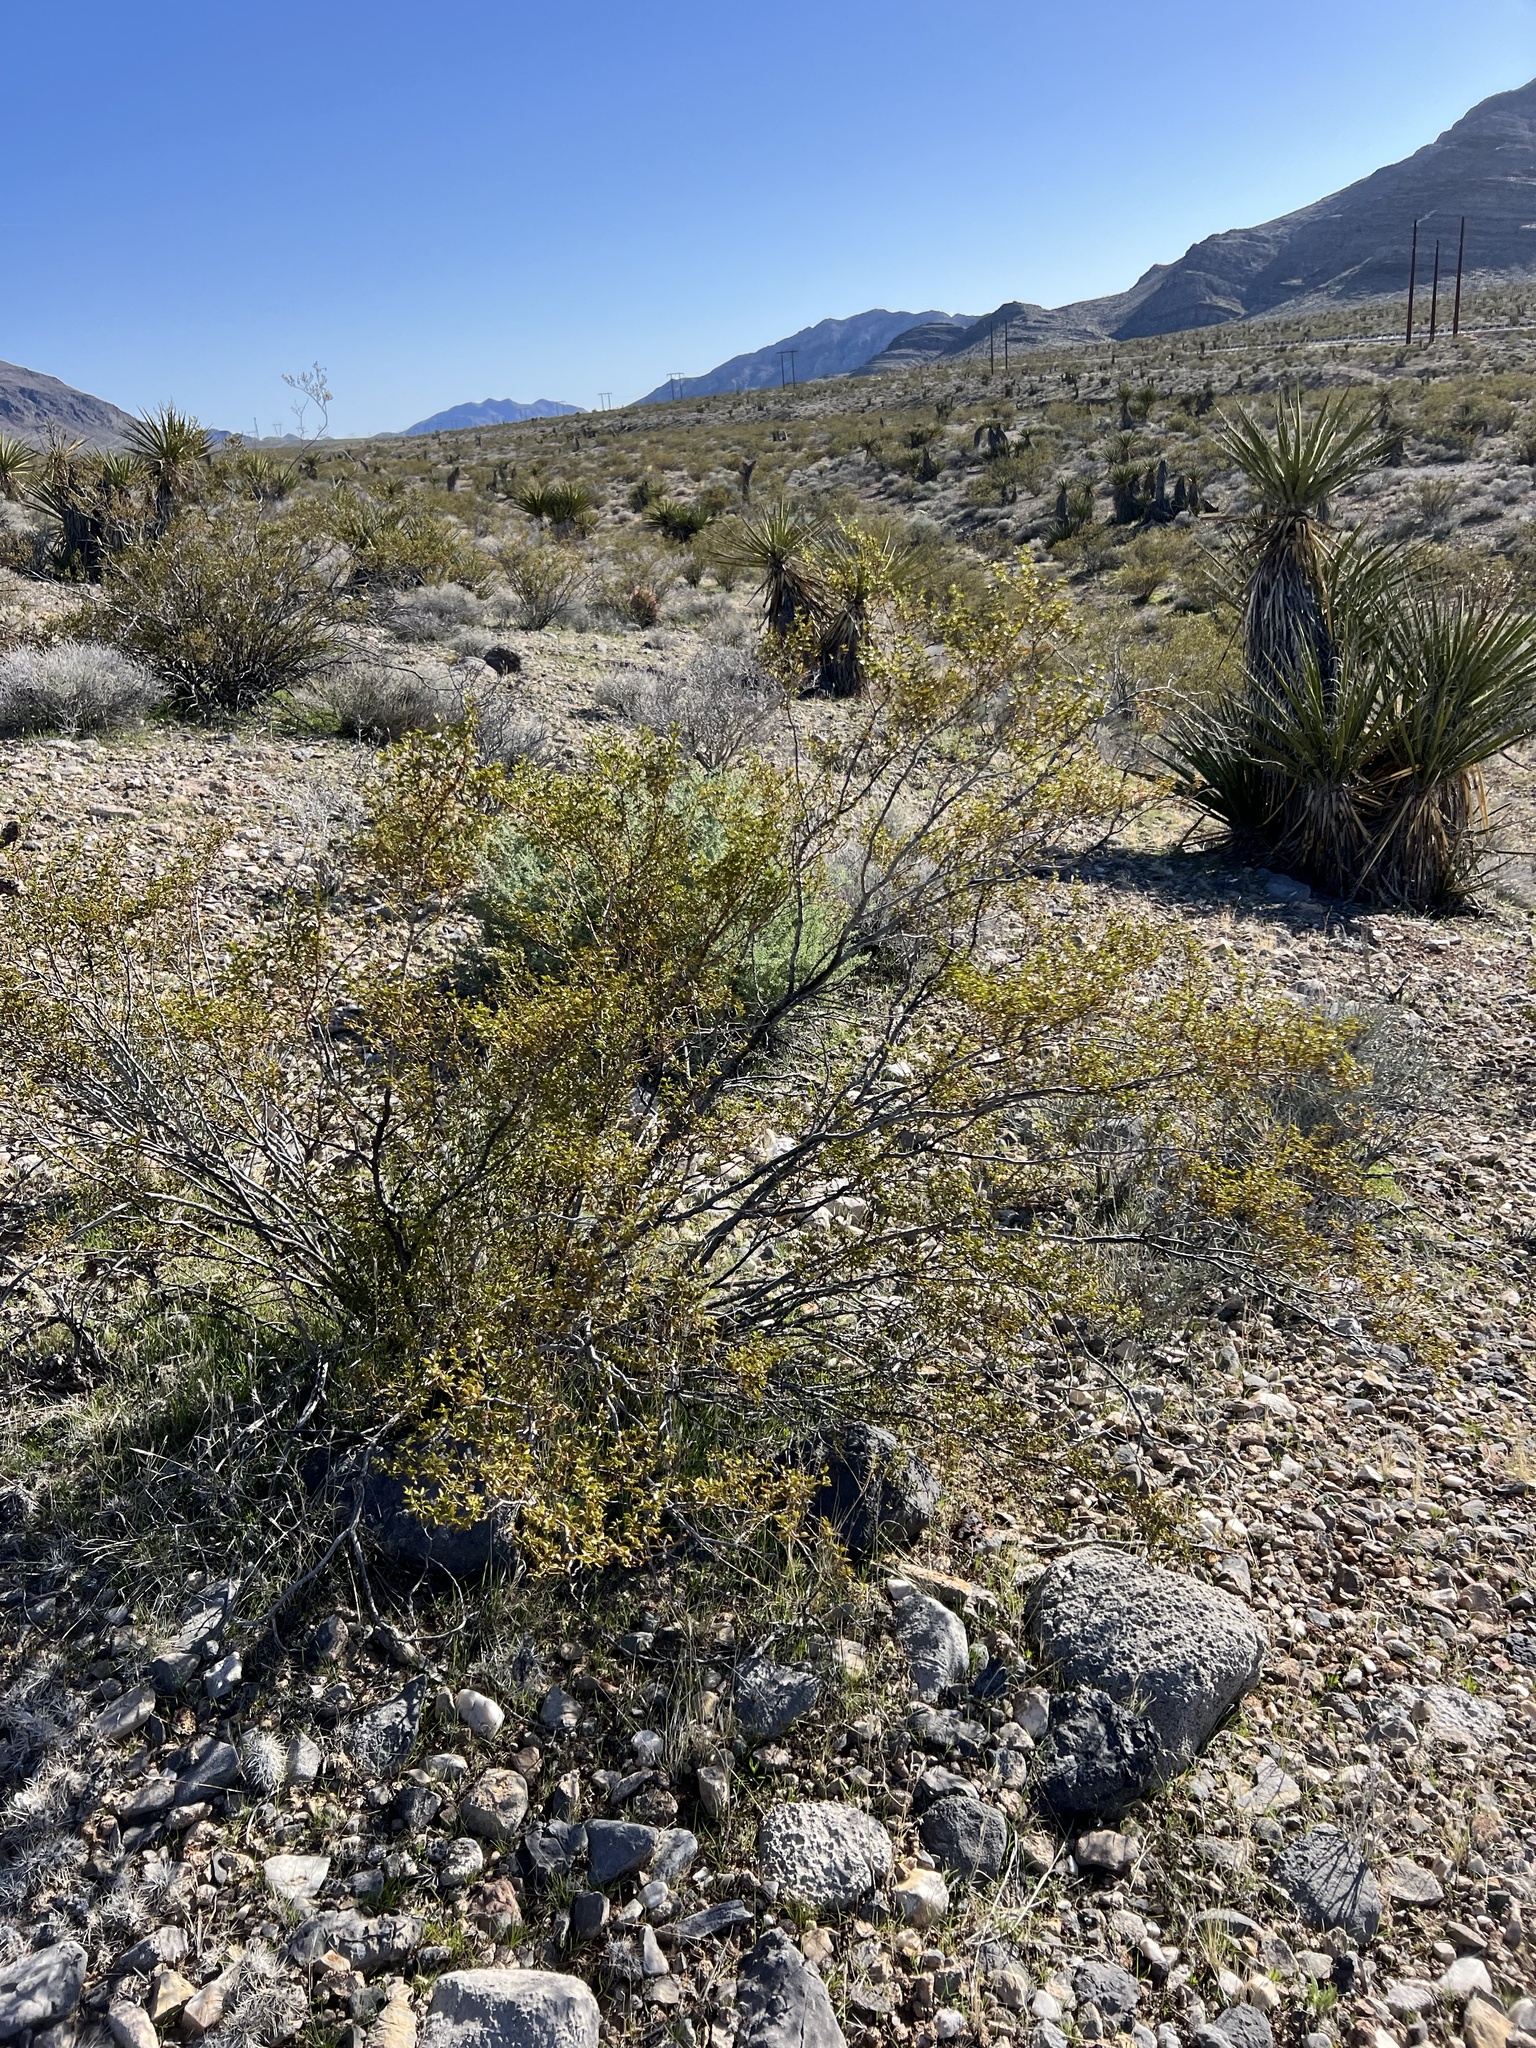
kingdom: Plantae
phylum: Tracheophyta
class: Magnoliopsida
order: Zygophyllales
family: Zygophyllaceae
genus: Larrea
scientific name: Larrea tridentata
